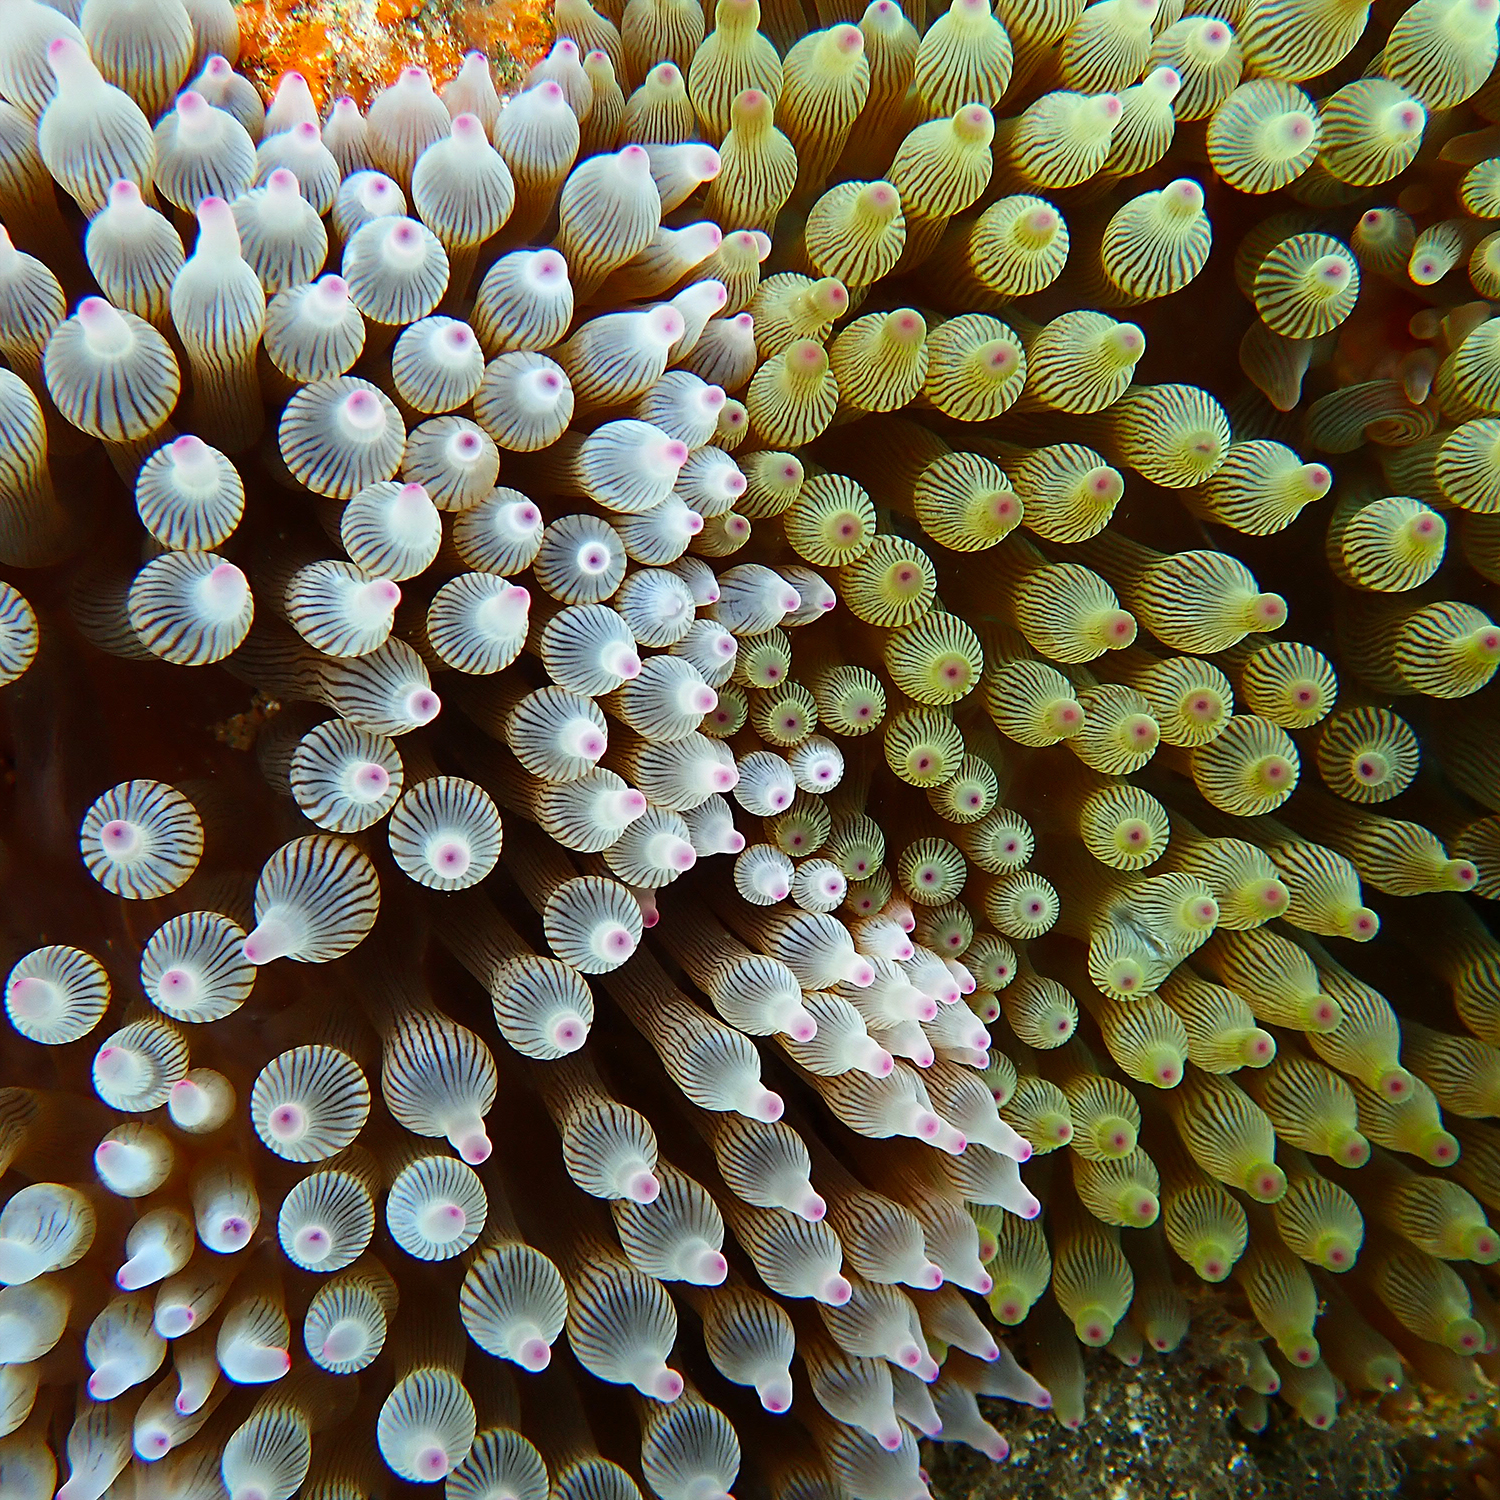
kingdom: Animalia
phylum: Cnidaria
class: Anthozoa
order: Actiniaria
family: Actiniidae
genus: Entacmaea
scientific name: Entacmaea quadricolor
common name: Bulb tentacle sea anemone
